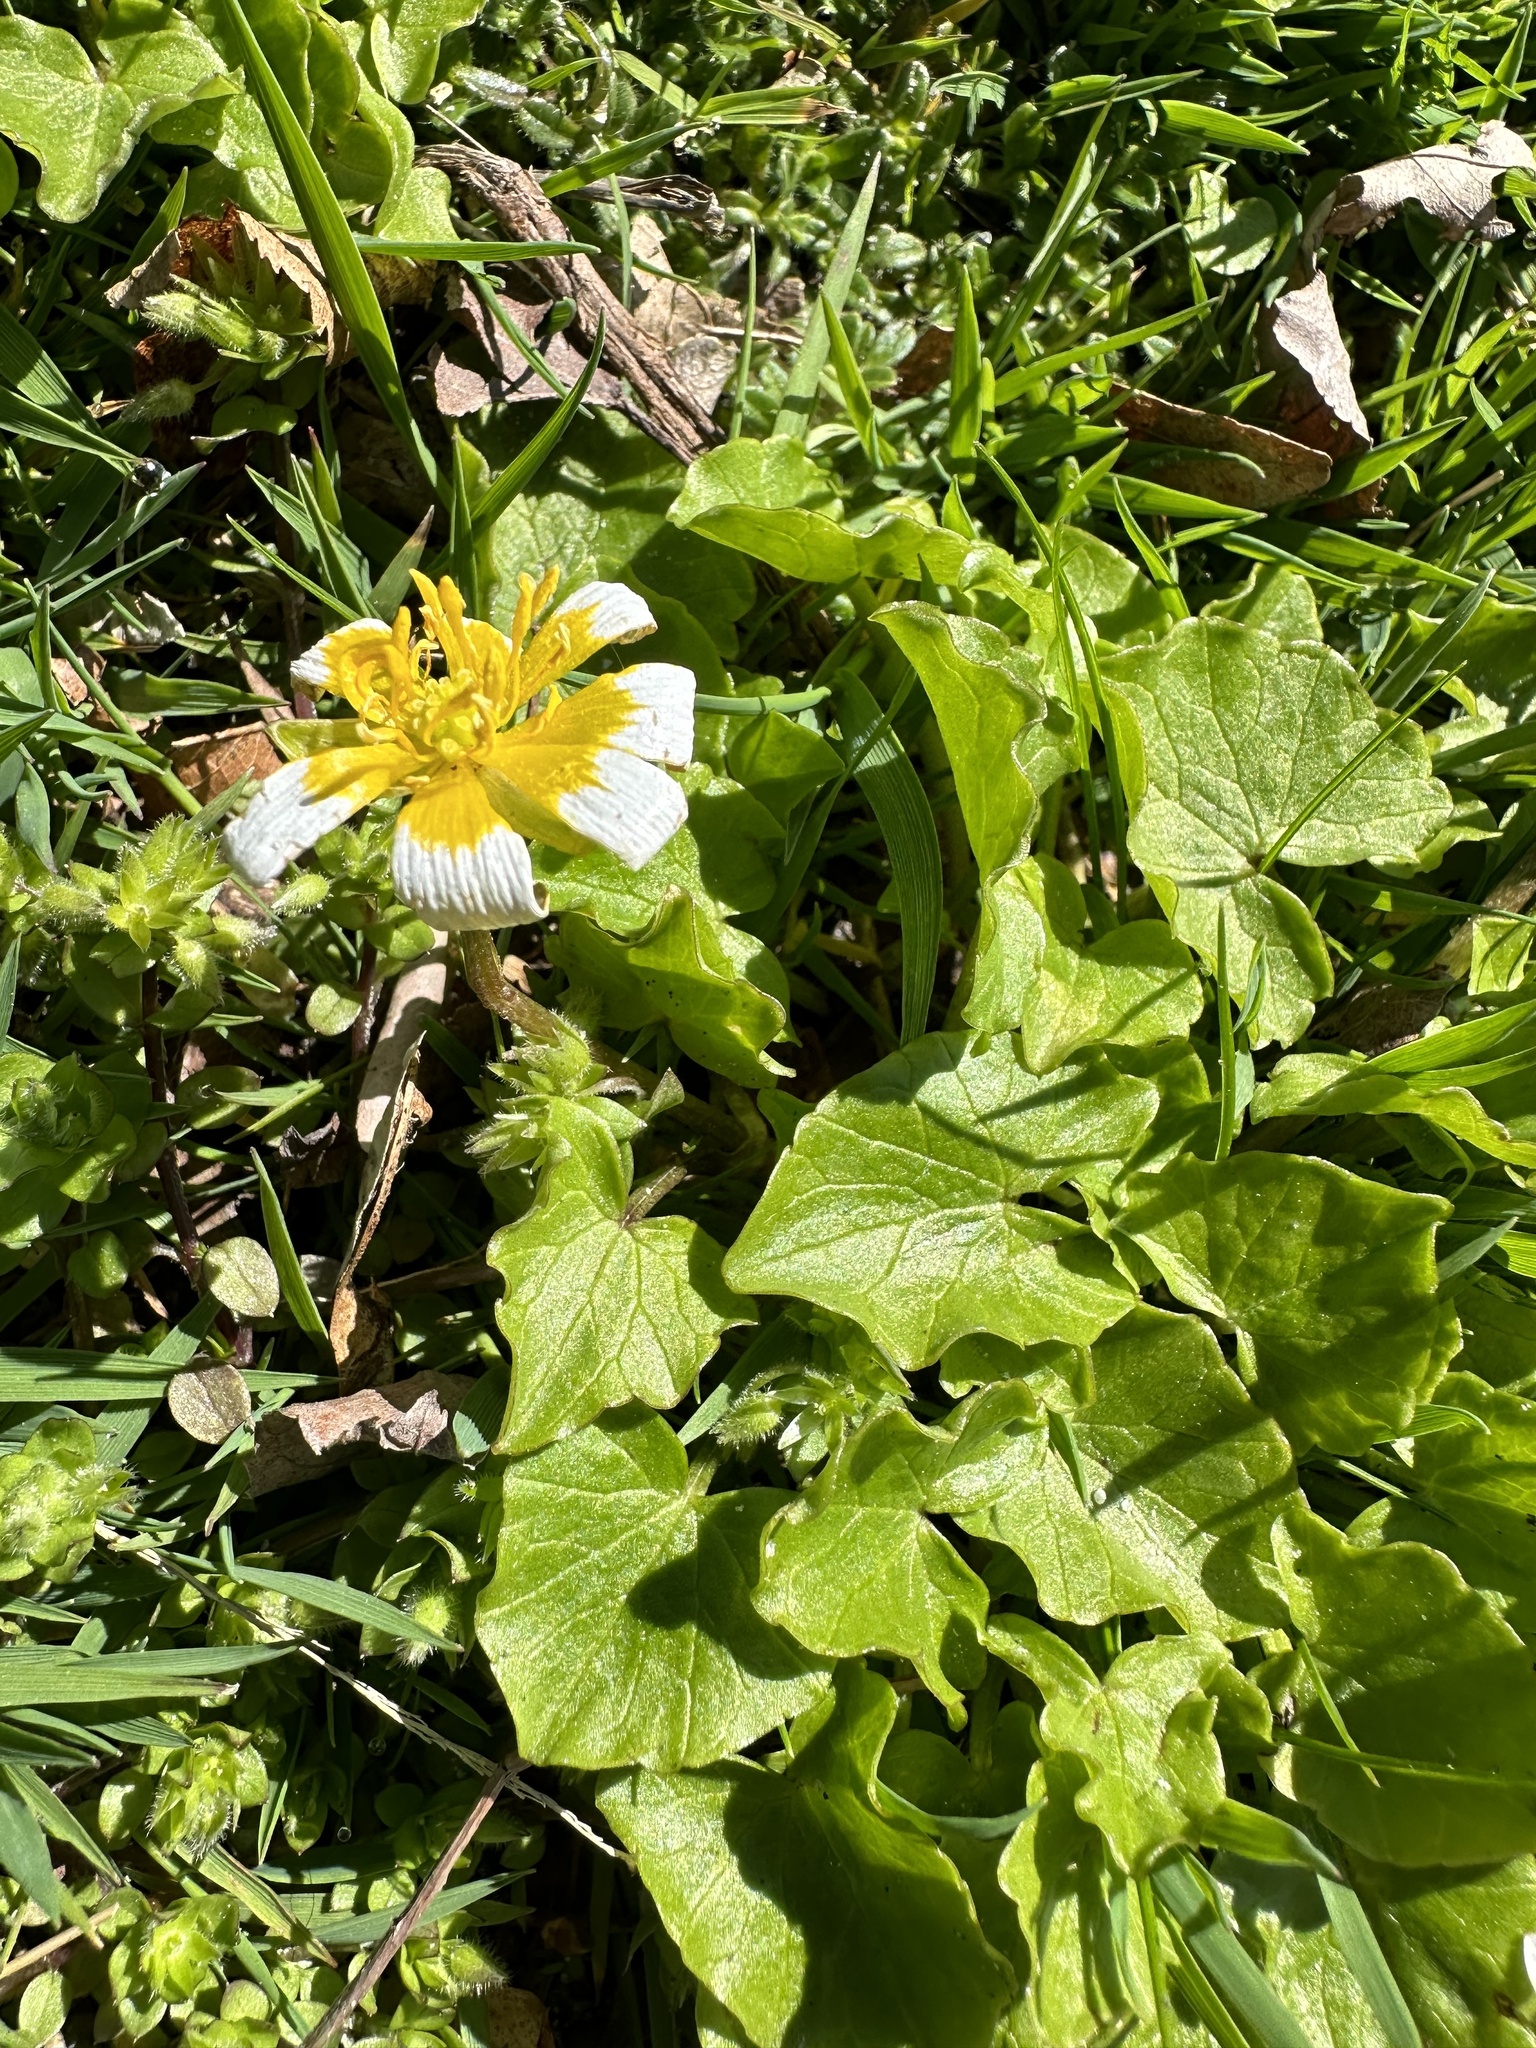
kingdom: Plantae
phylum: Tracheophyta
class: Magnoliopsida
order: Ranunculales
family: Ranunculaceae
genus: Ficaria
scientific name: Ficaria verna
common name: Lesser celandine
